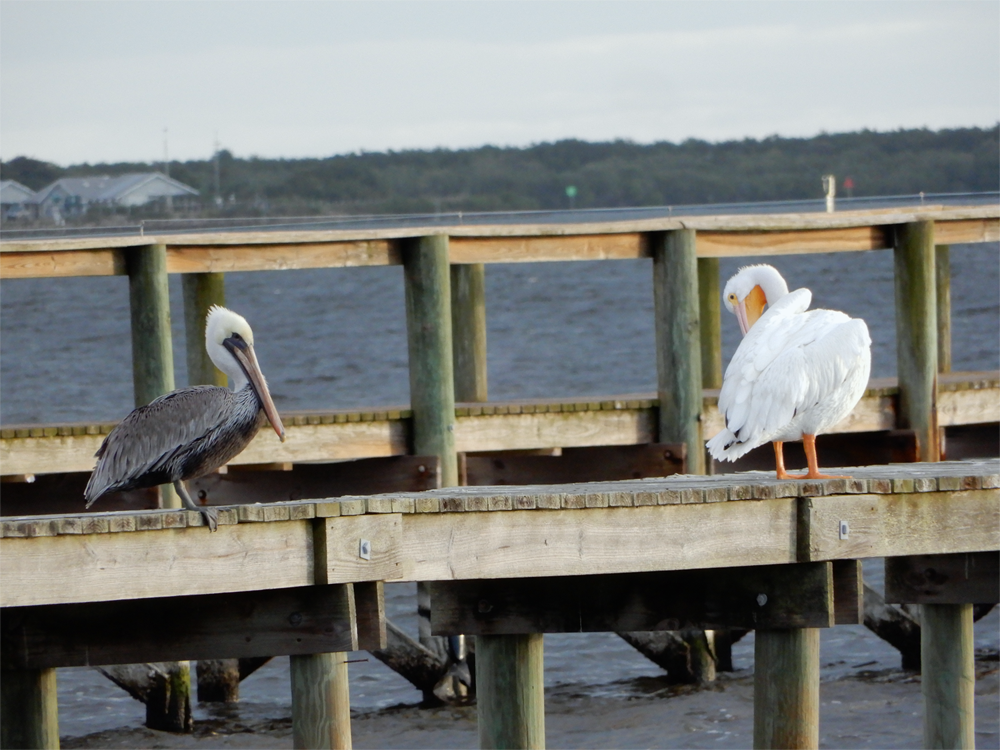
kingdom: Animalia
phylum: Chordata
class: Aves
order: Pelecaniformes
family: Pelecanidae
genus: Pelecanus
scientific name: Pelecanus erythrorhynchos
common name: American white pelican
